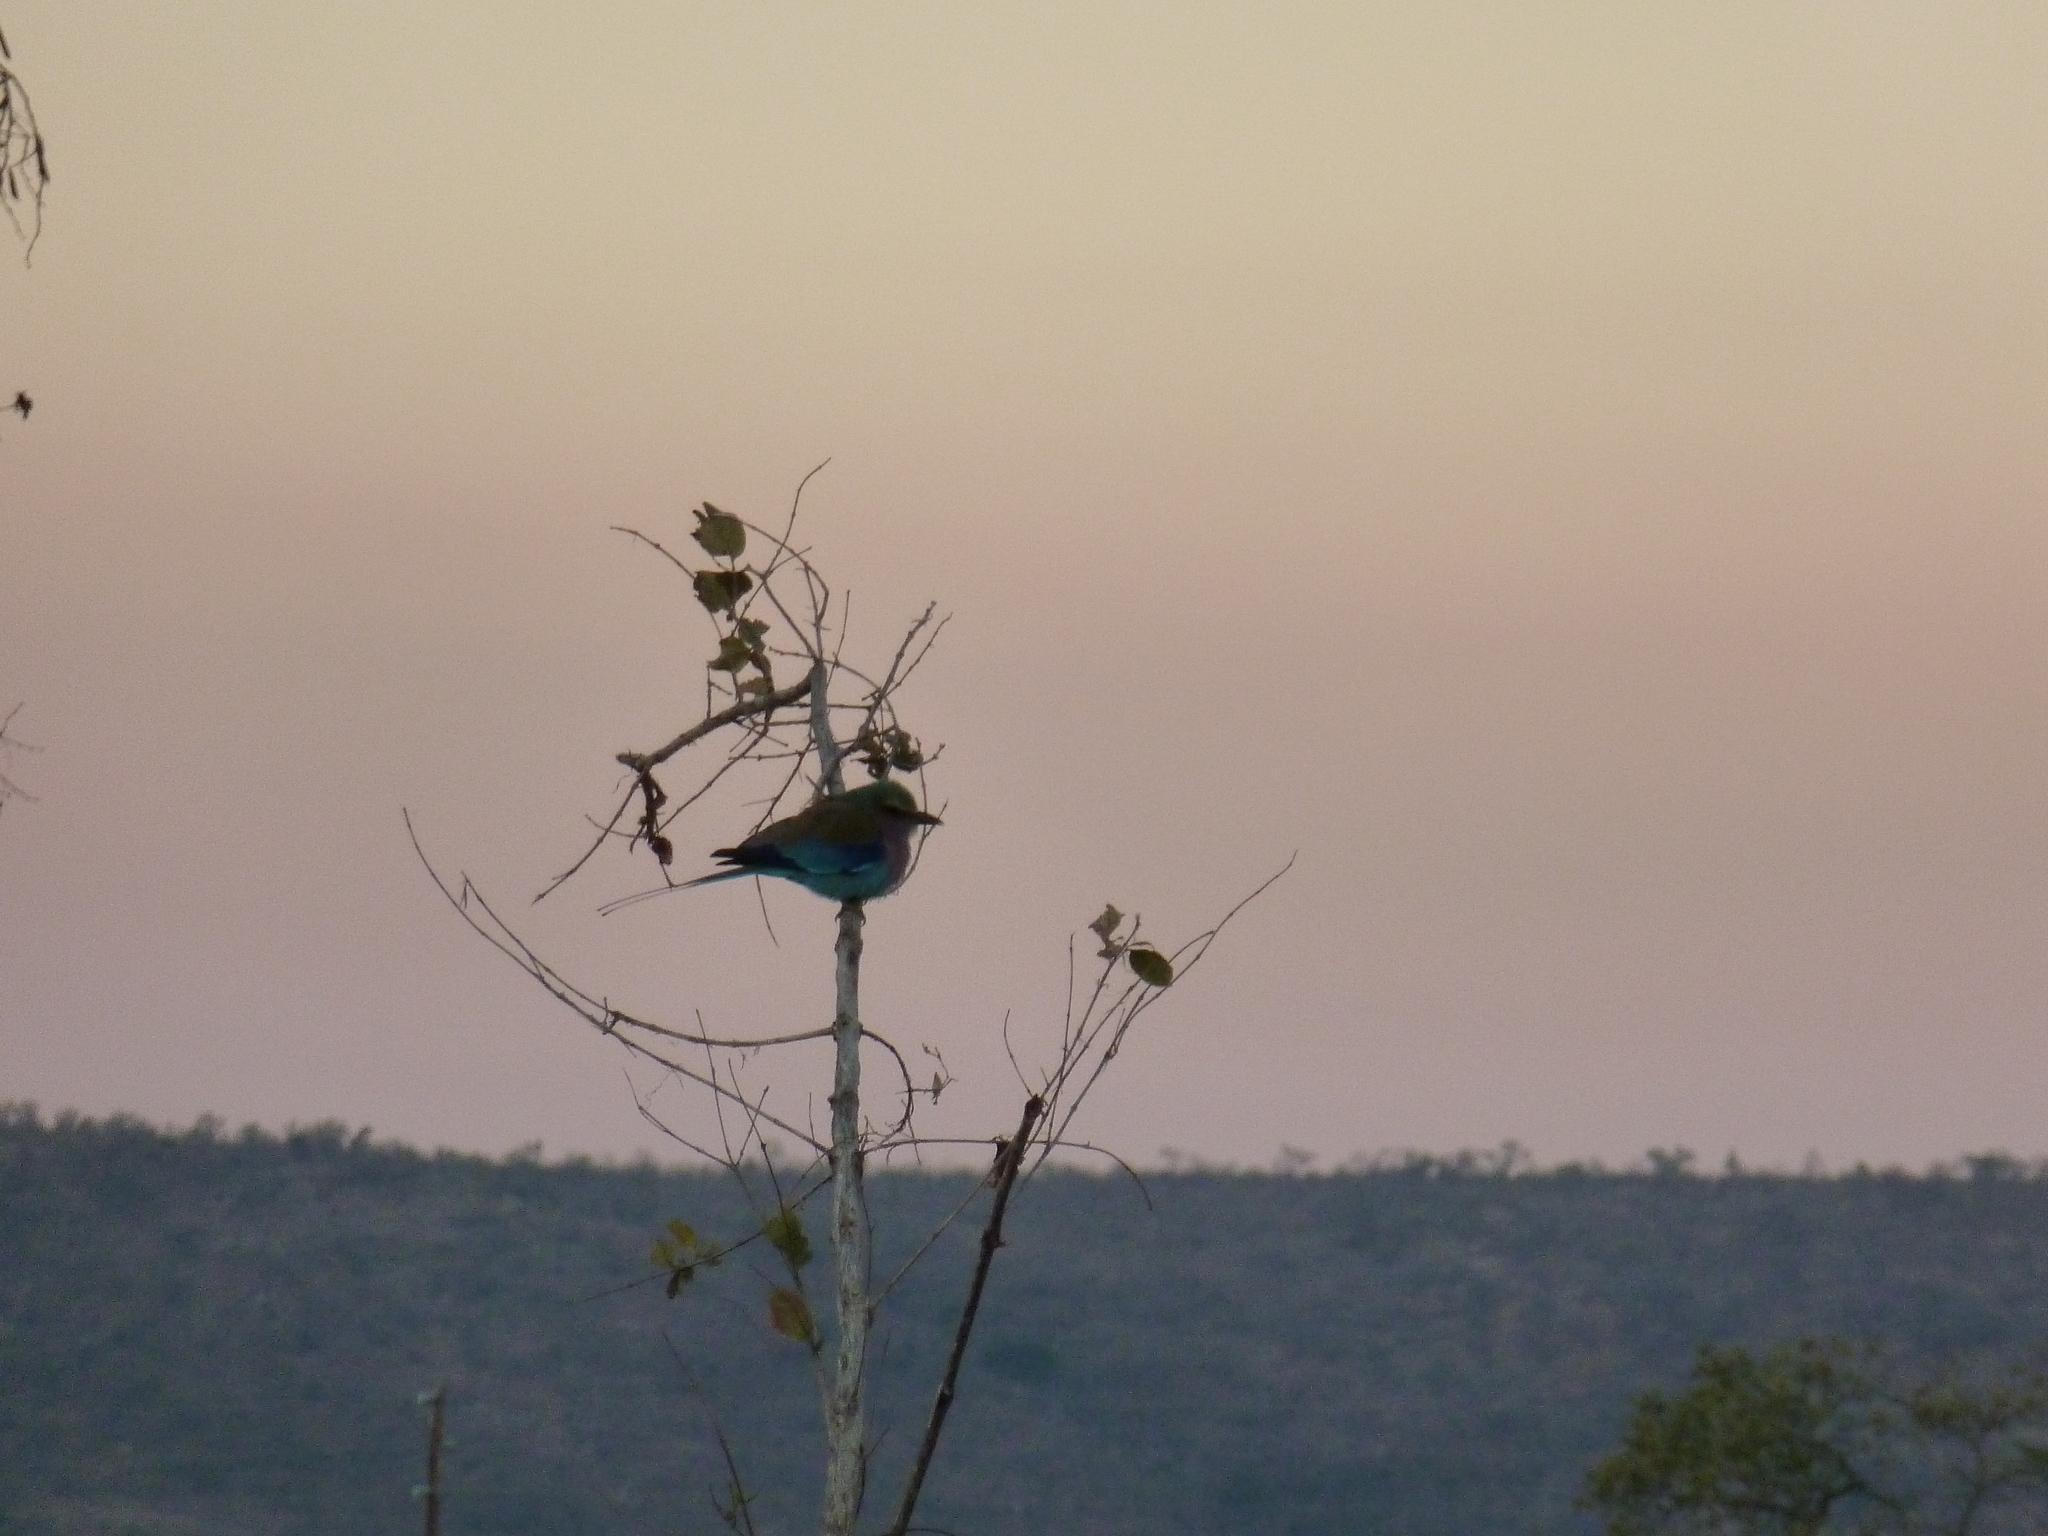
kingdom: Animalia
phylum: Chordata
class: Aves
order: Coraciiformes
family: Coraciidae
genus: Coracias
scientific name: Coracias caudatus
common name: Lilac-breasted roller
